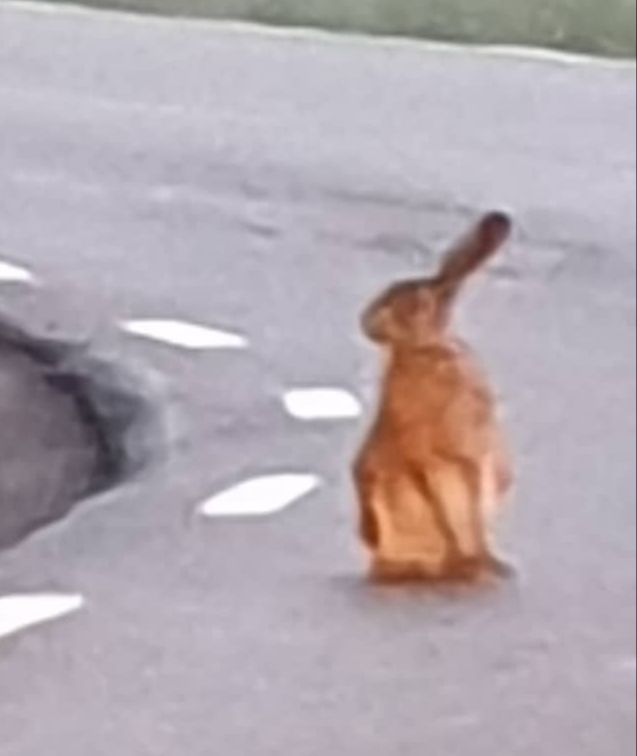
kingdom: Animalia
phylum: Chordata
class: Mammalia
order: Lagomorpha
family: Leporidae
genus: Lepus
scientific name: Lepus europaeus
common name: European hare
